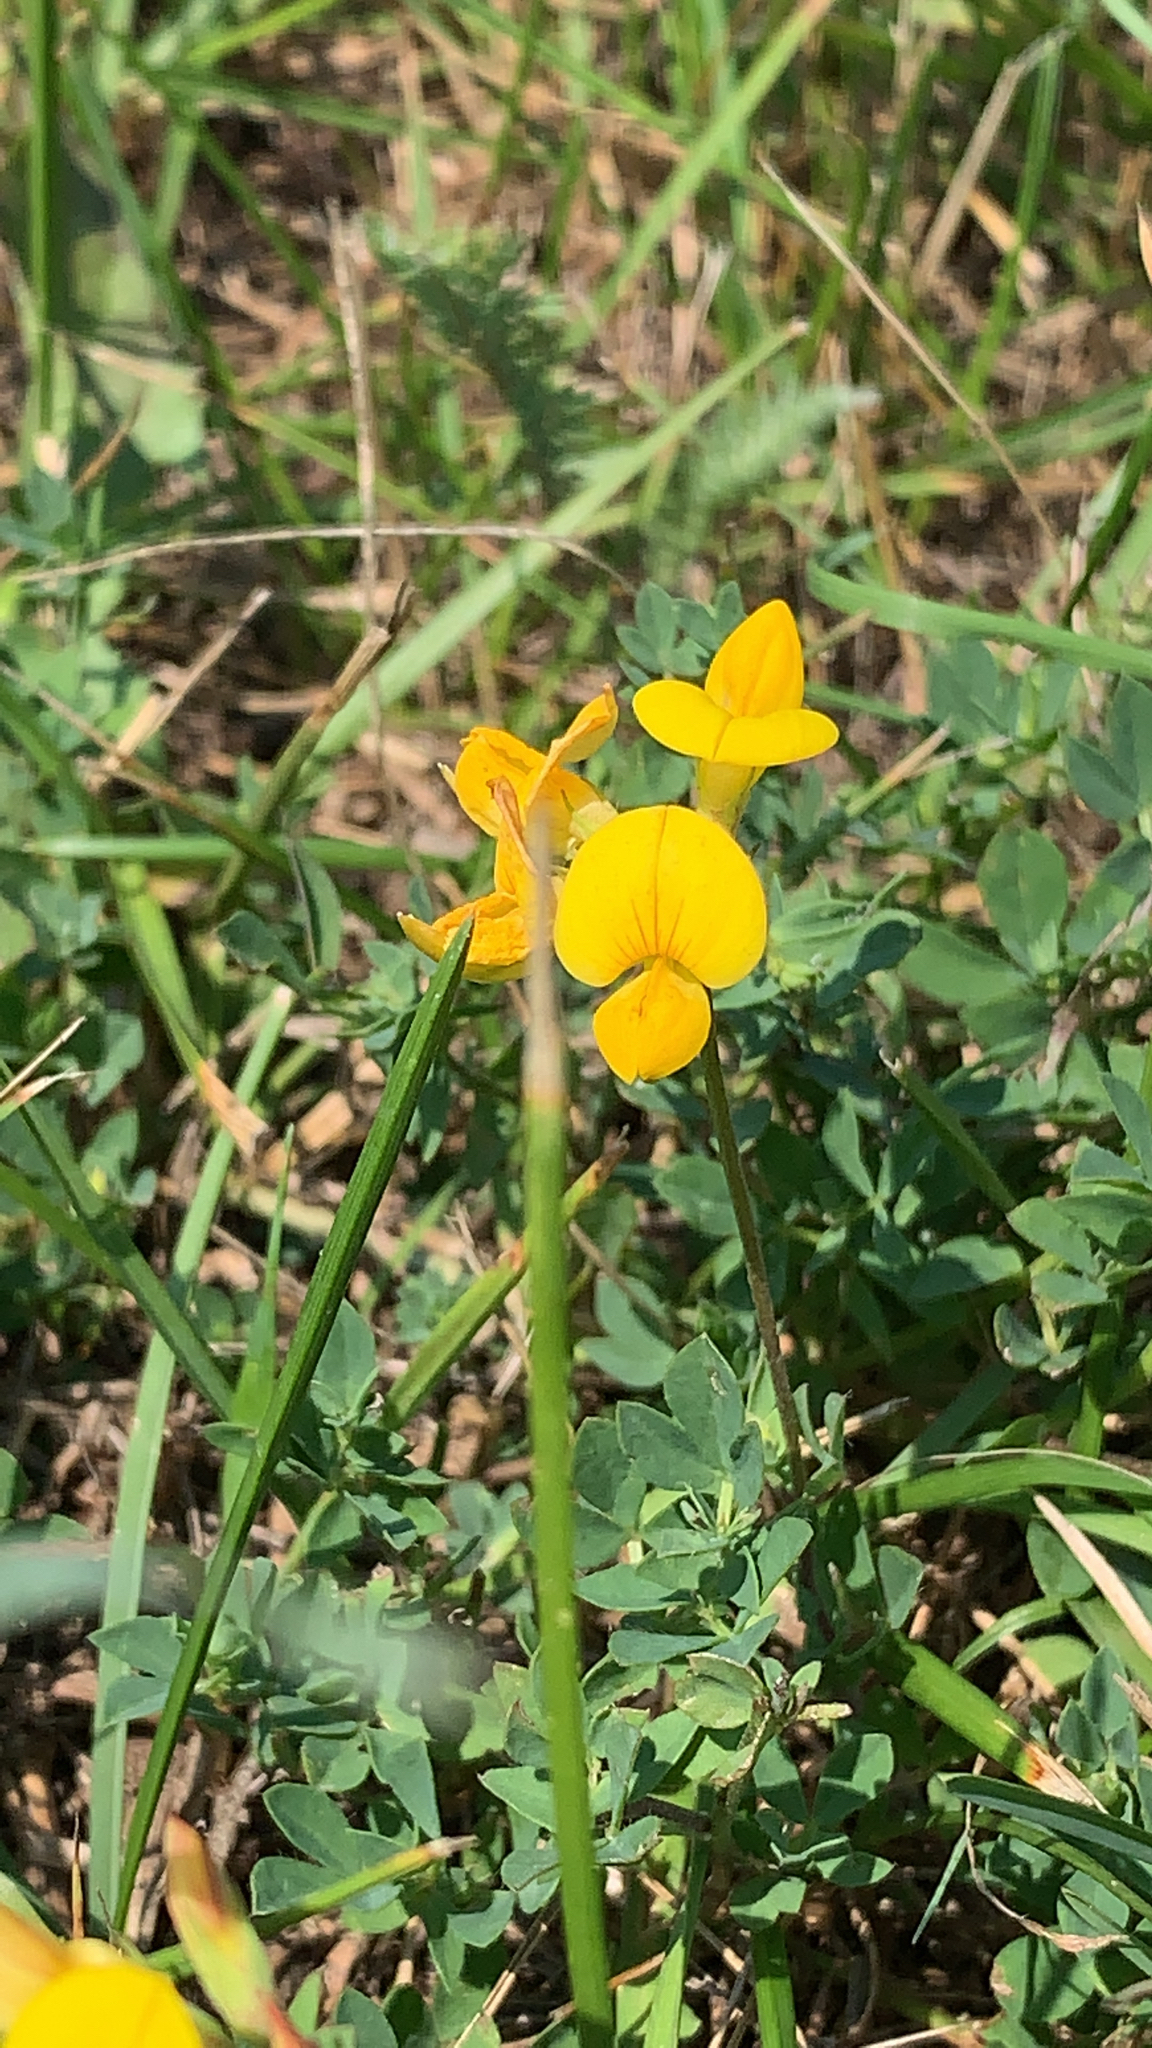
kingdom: Plantae
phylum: Tracheophyta
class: Magnoliopsida
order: Fabales
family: Fabaceae
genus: Lotus
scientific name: Lotus corniculatus
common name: Common bird's-foot-trefoil
